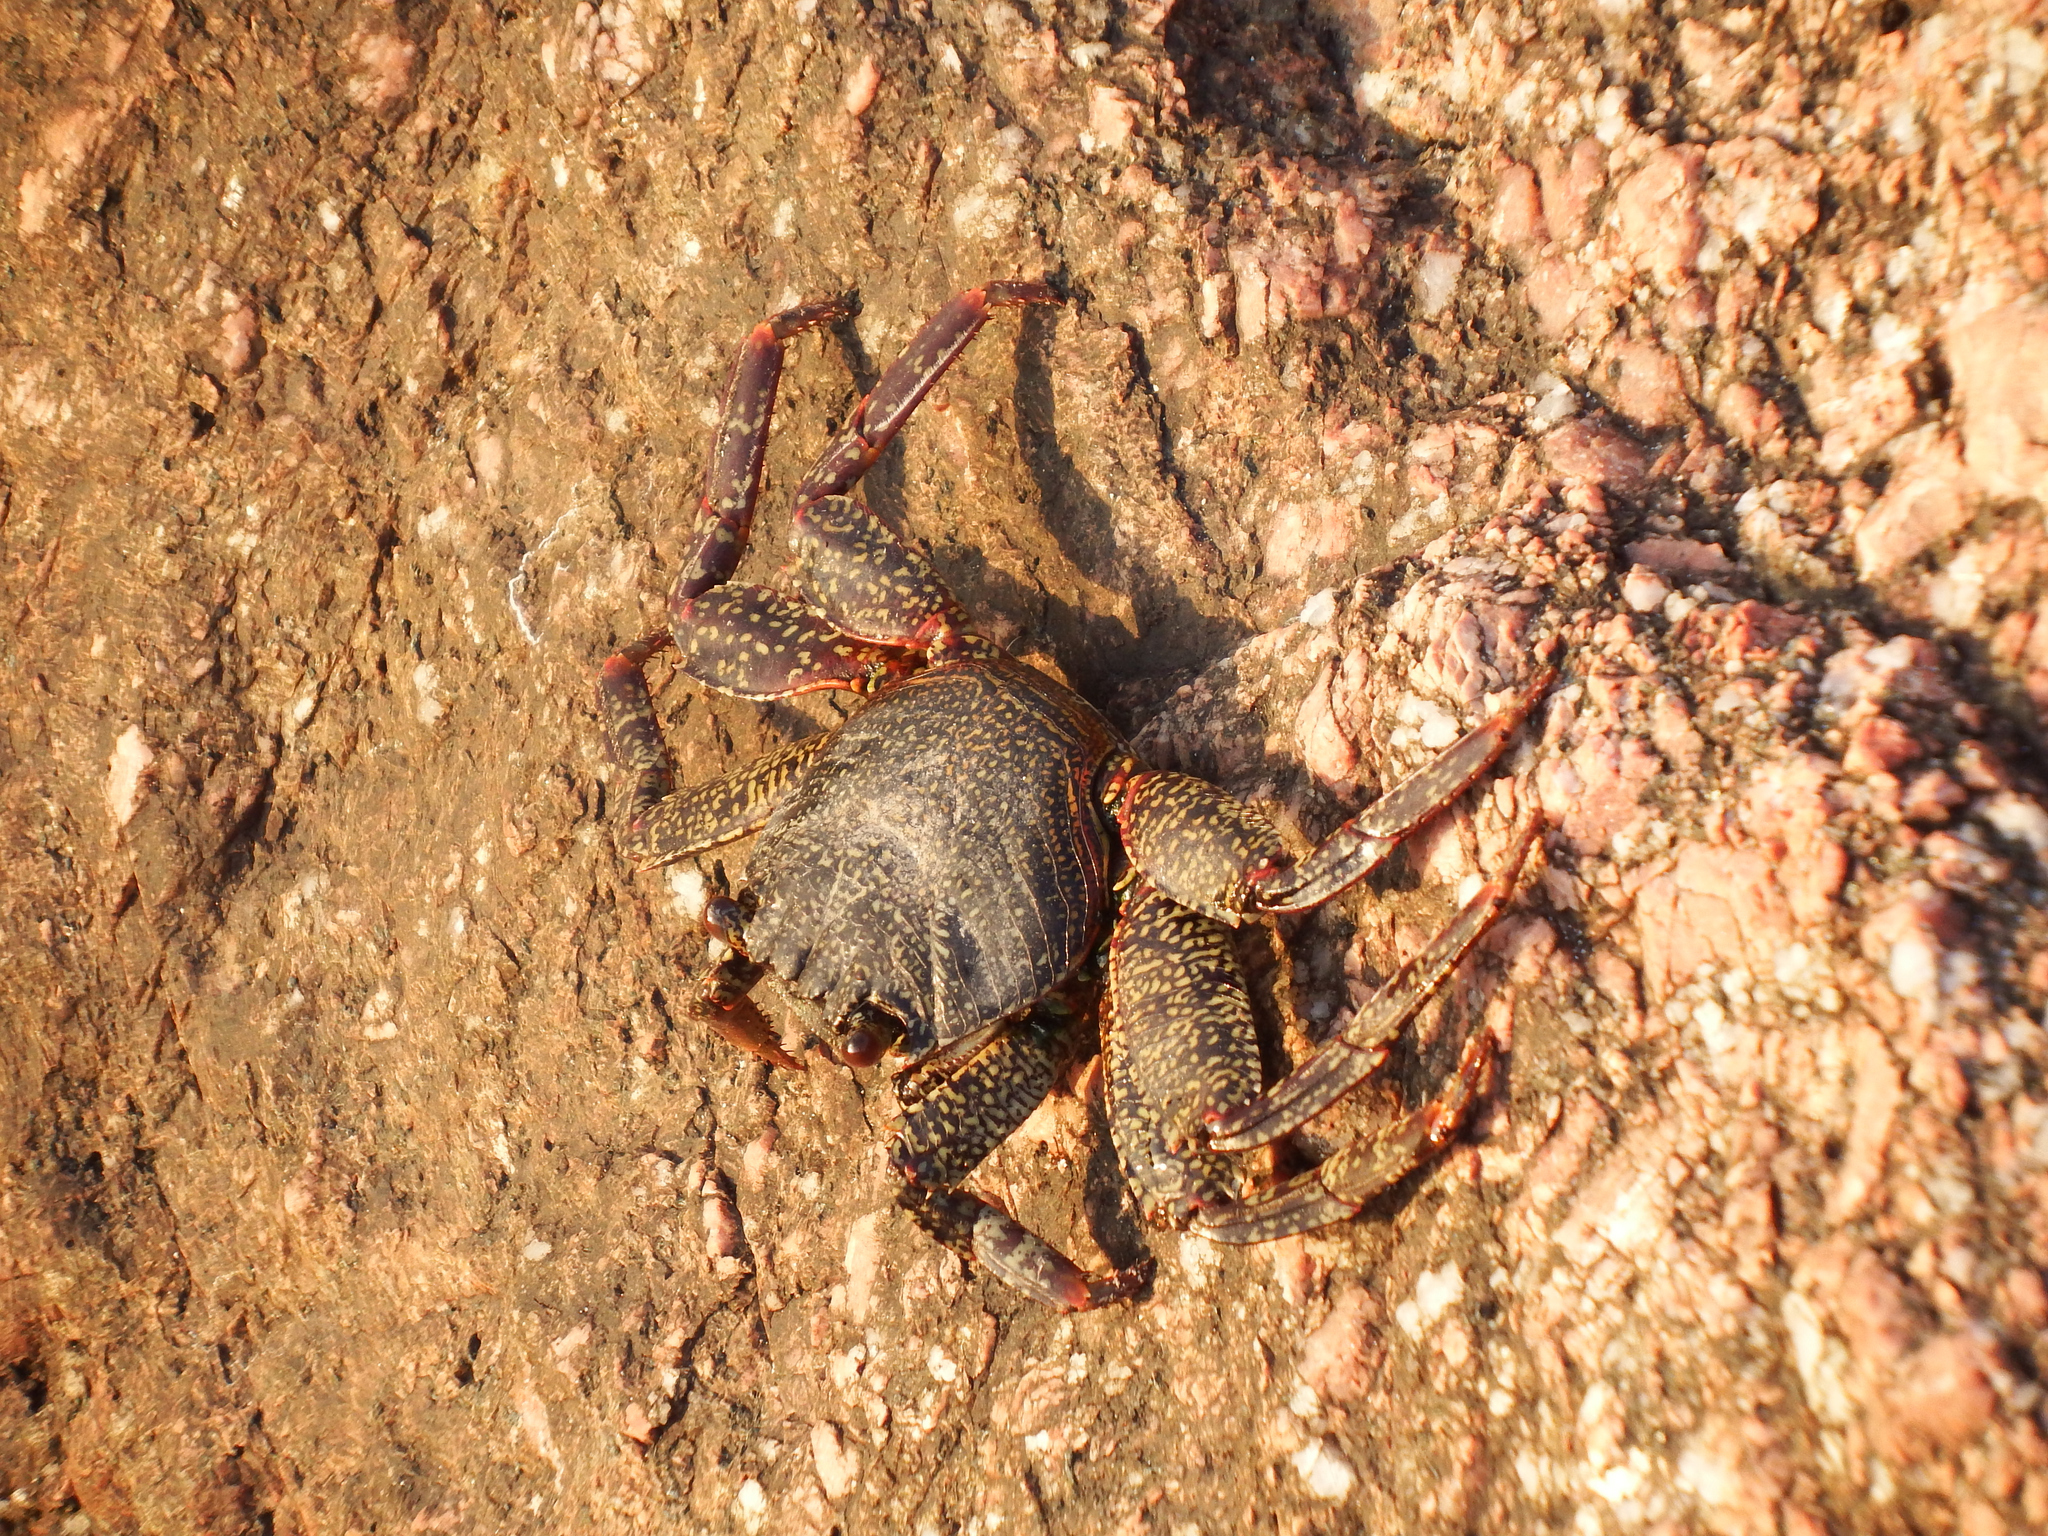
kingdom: Animalia
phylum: Arthropoda
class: Malacostraca
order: Decapoda
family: Grapsidae
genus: Grapsus
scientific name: Grapsus grapsus
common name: Sally lightfoot
